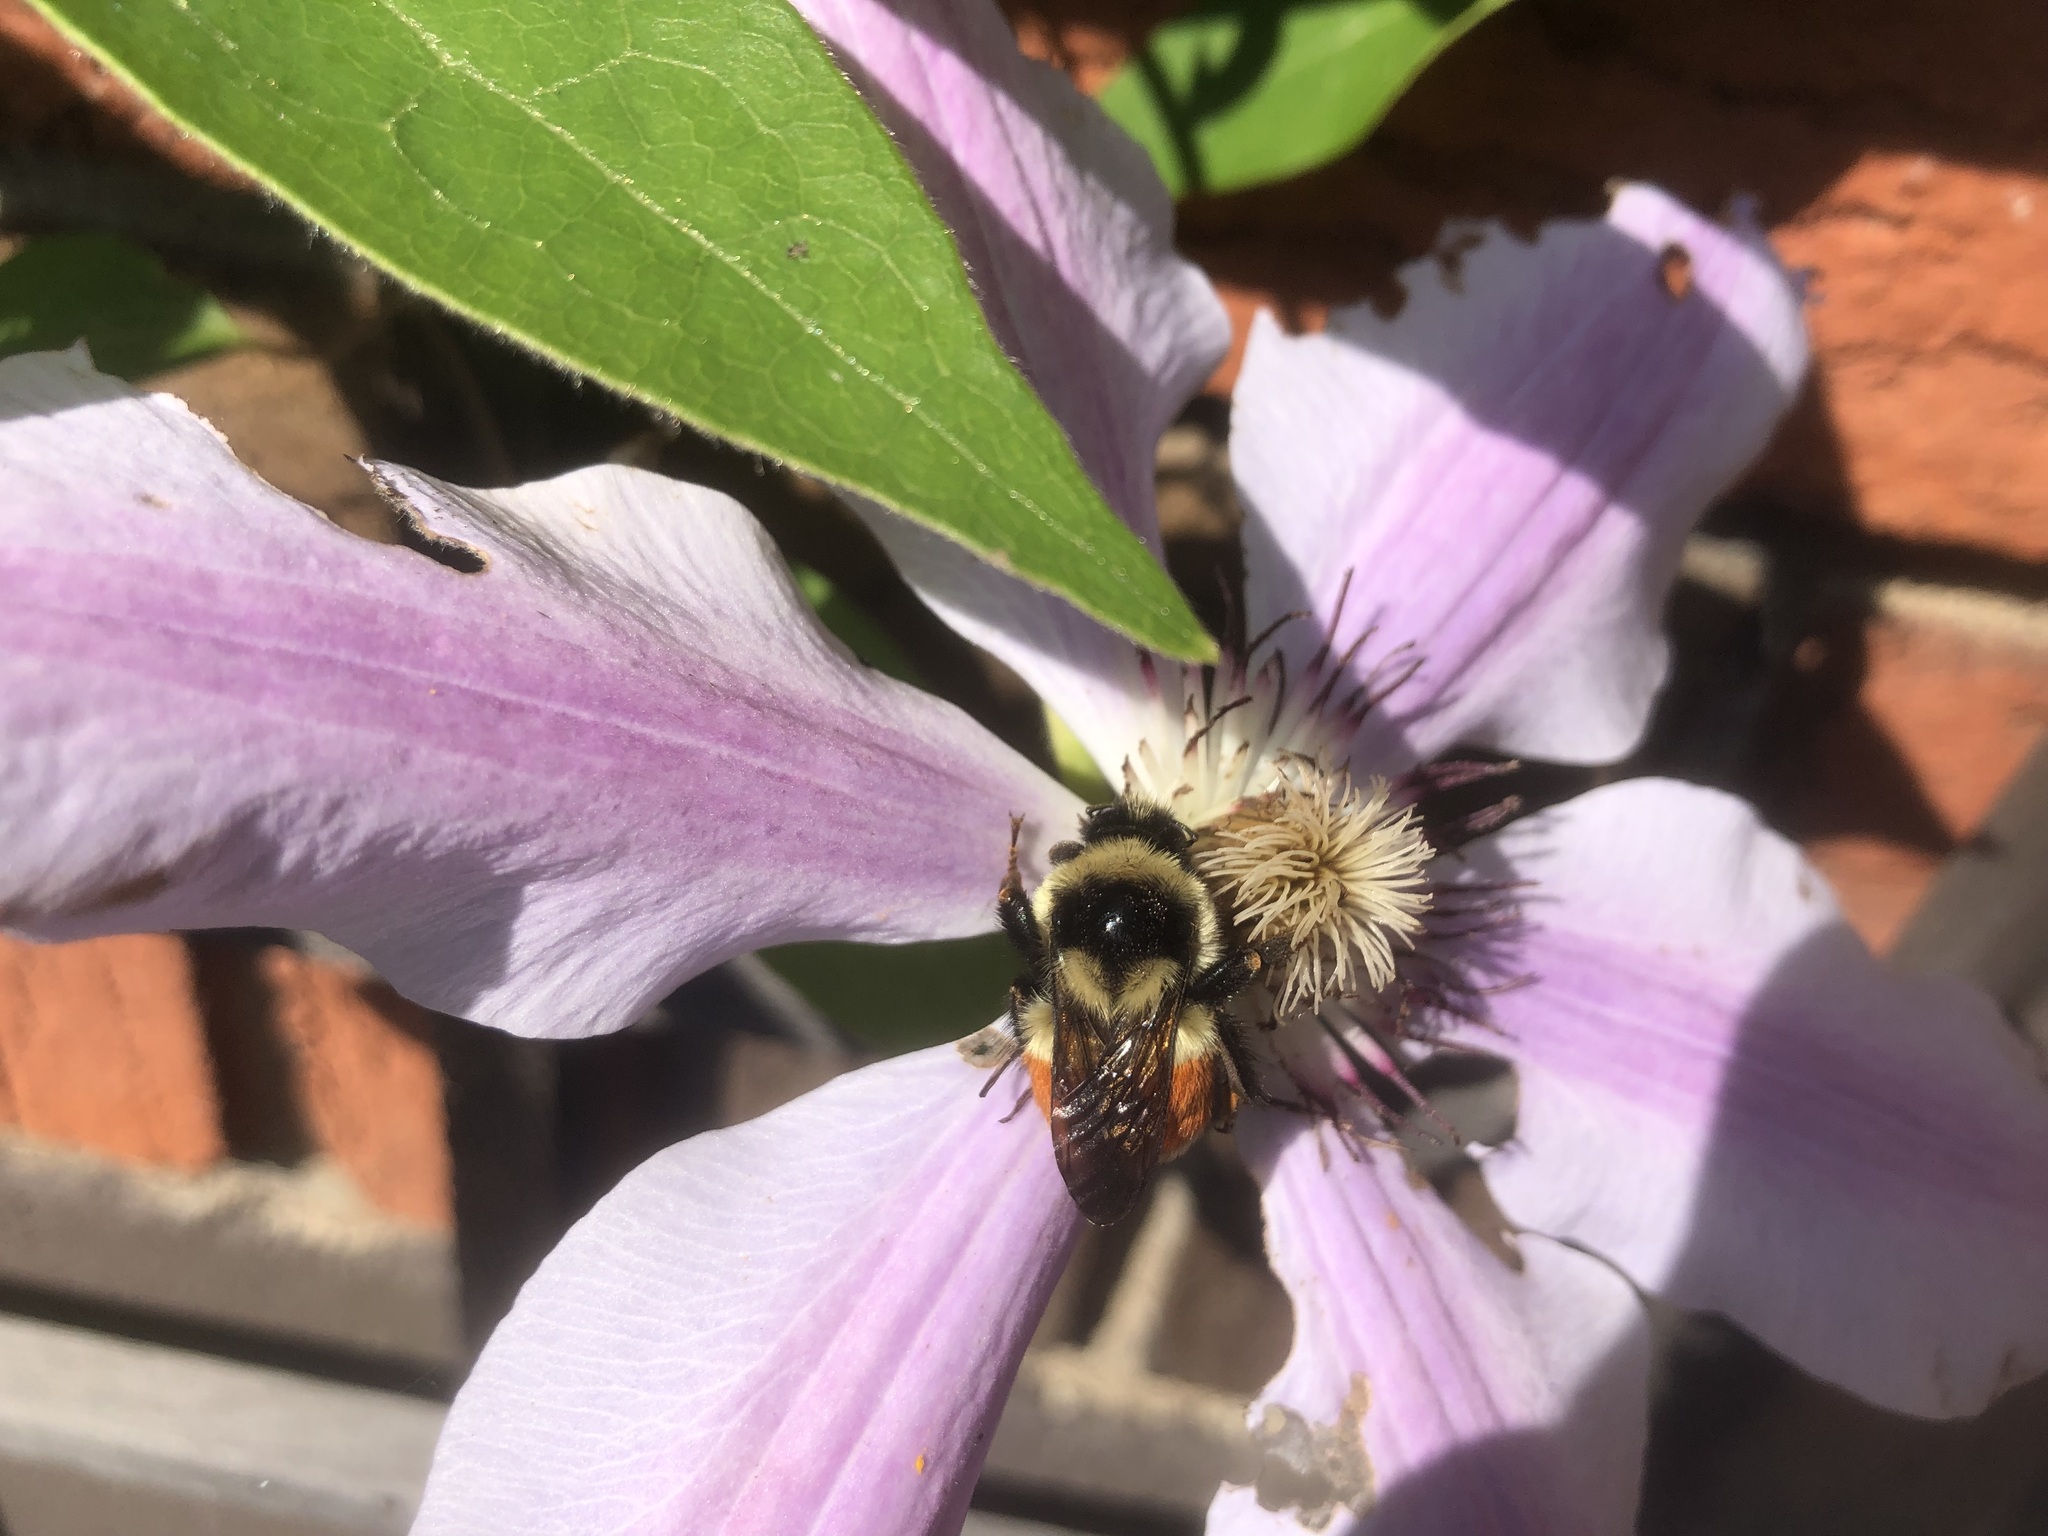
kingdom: Animalia
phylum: Arthropoda
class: Insecta
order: Hymenoptera
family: Apidae
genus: Bombus
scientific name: Bombus ternarius
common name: Tri-colored bumble bee
